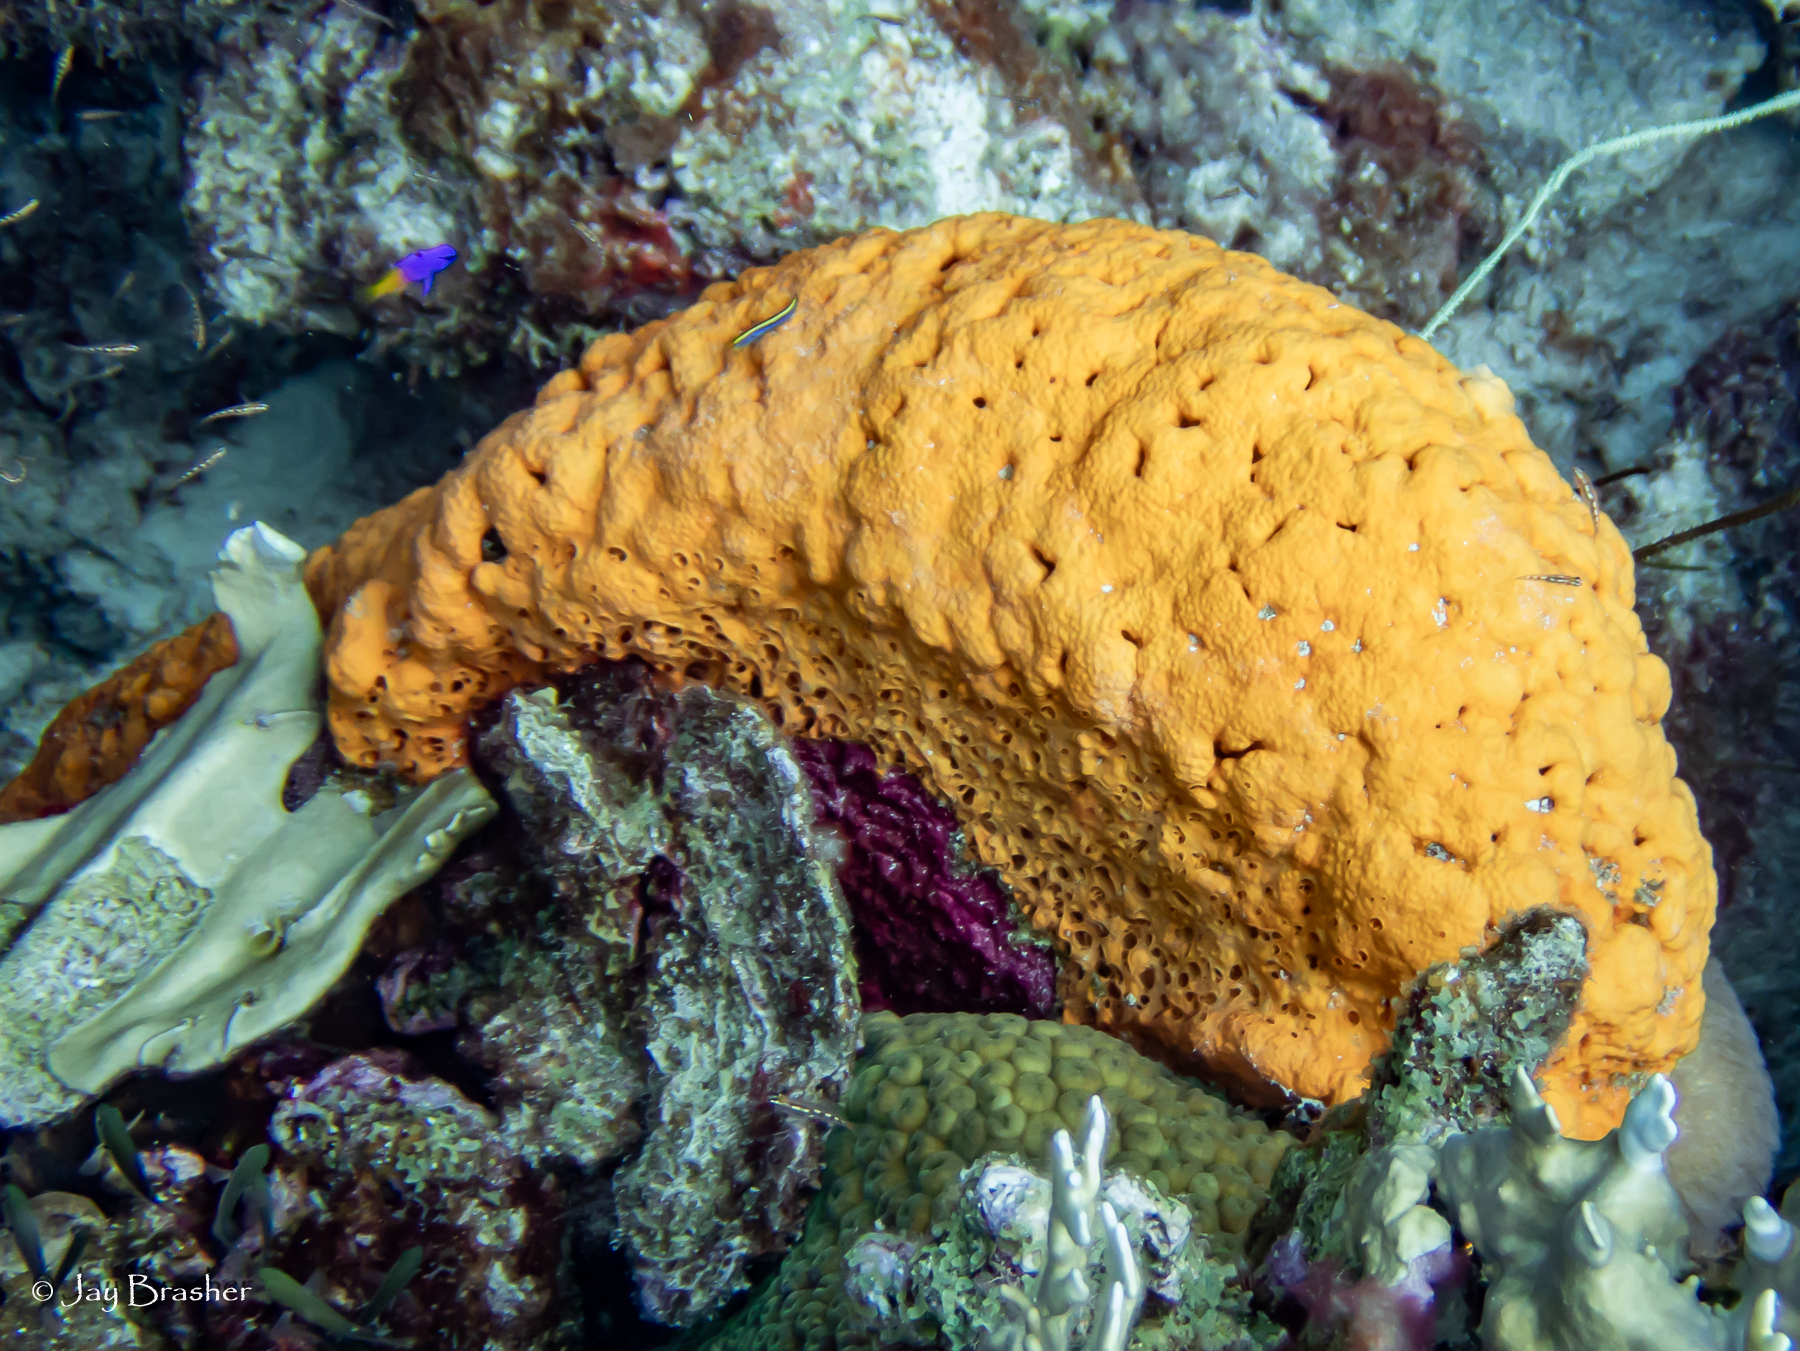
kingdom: Animalia
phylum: Porifera
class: Demospongiae
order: Agelasida
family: Agelasidae
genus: Agelas
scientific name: Agelas clathrodes
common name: Orange elephant ear sponge
